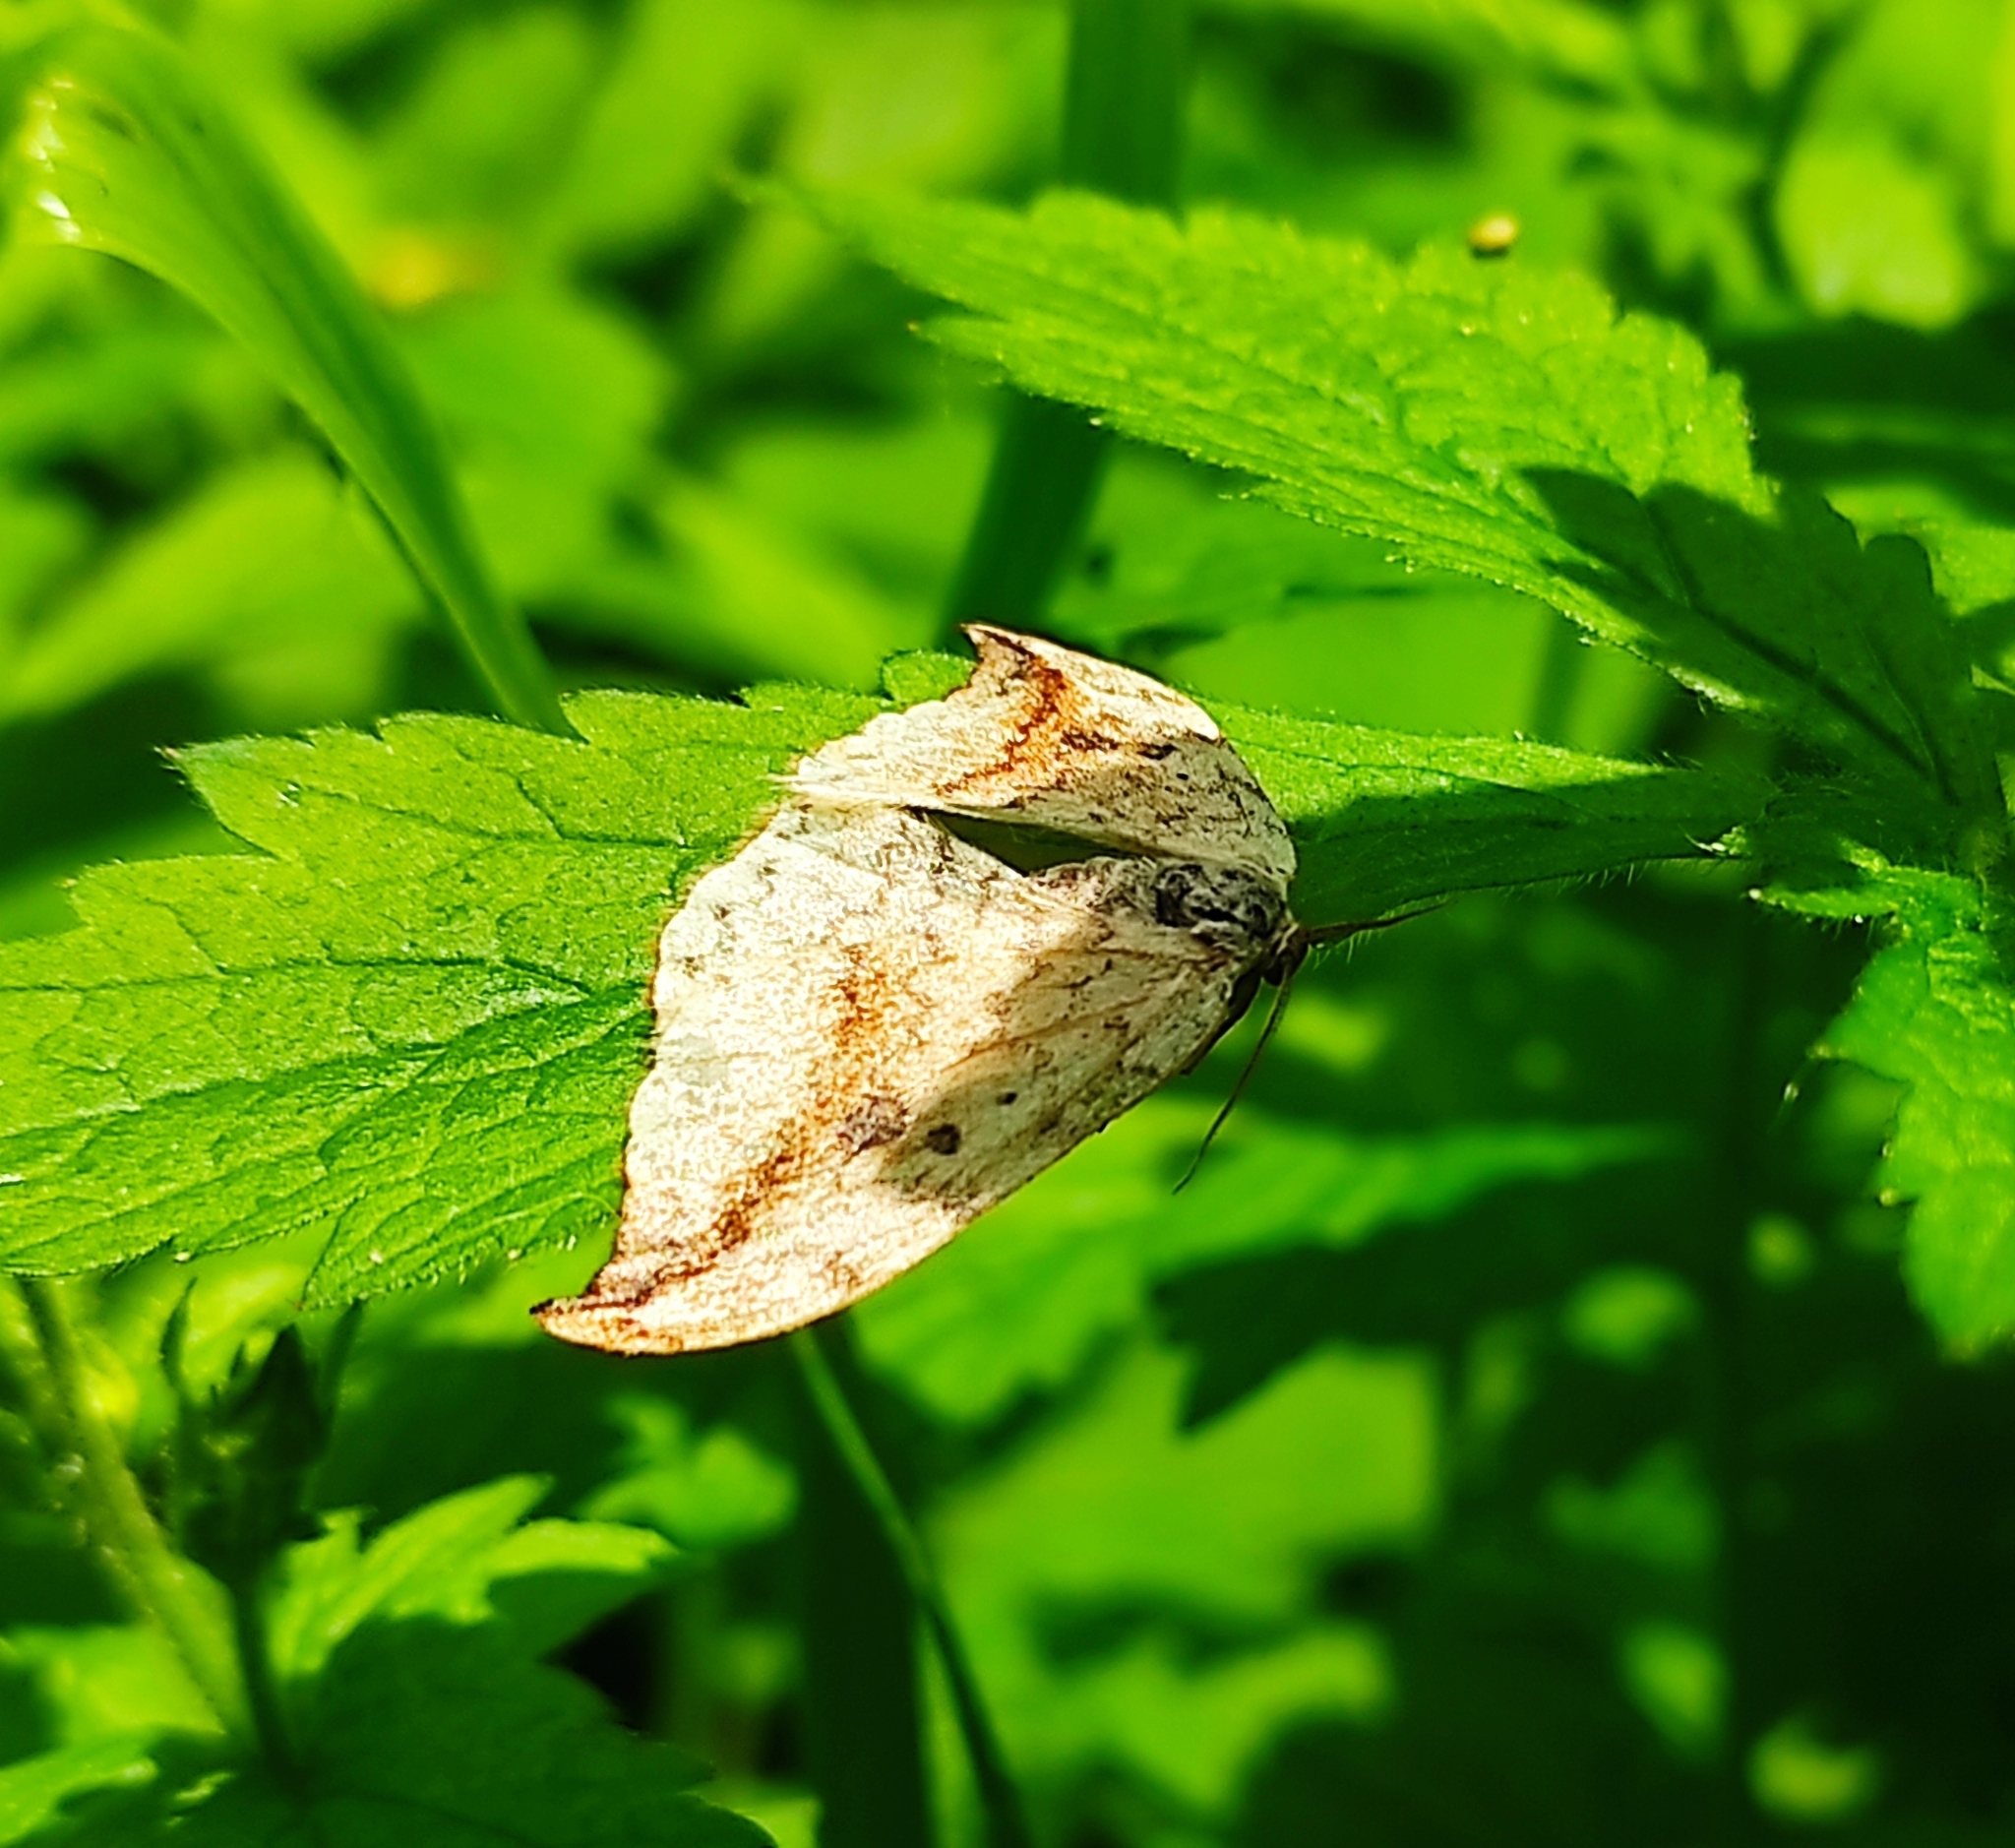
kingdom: Animalia
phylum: Arthropoda
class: Insecta
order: Lepidoptera
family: Drepanidae
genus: Drepana
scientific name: Drepana falcataria
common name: Pebble hook-tip
